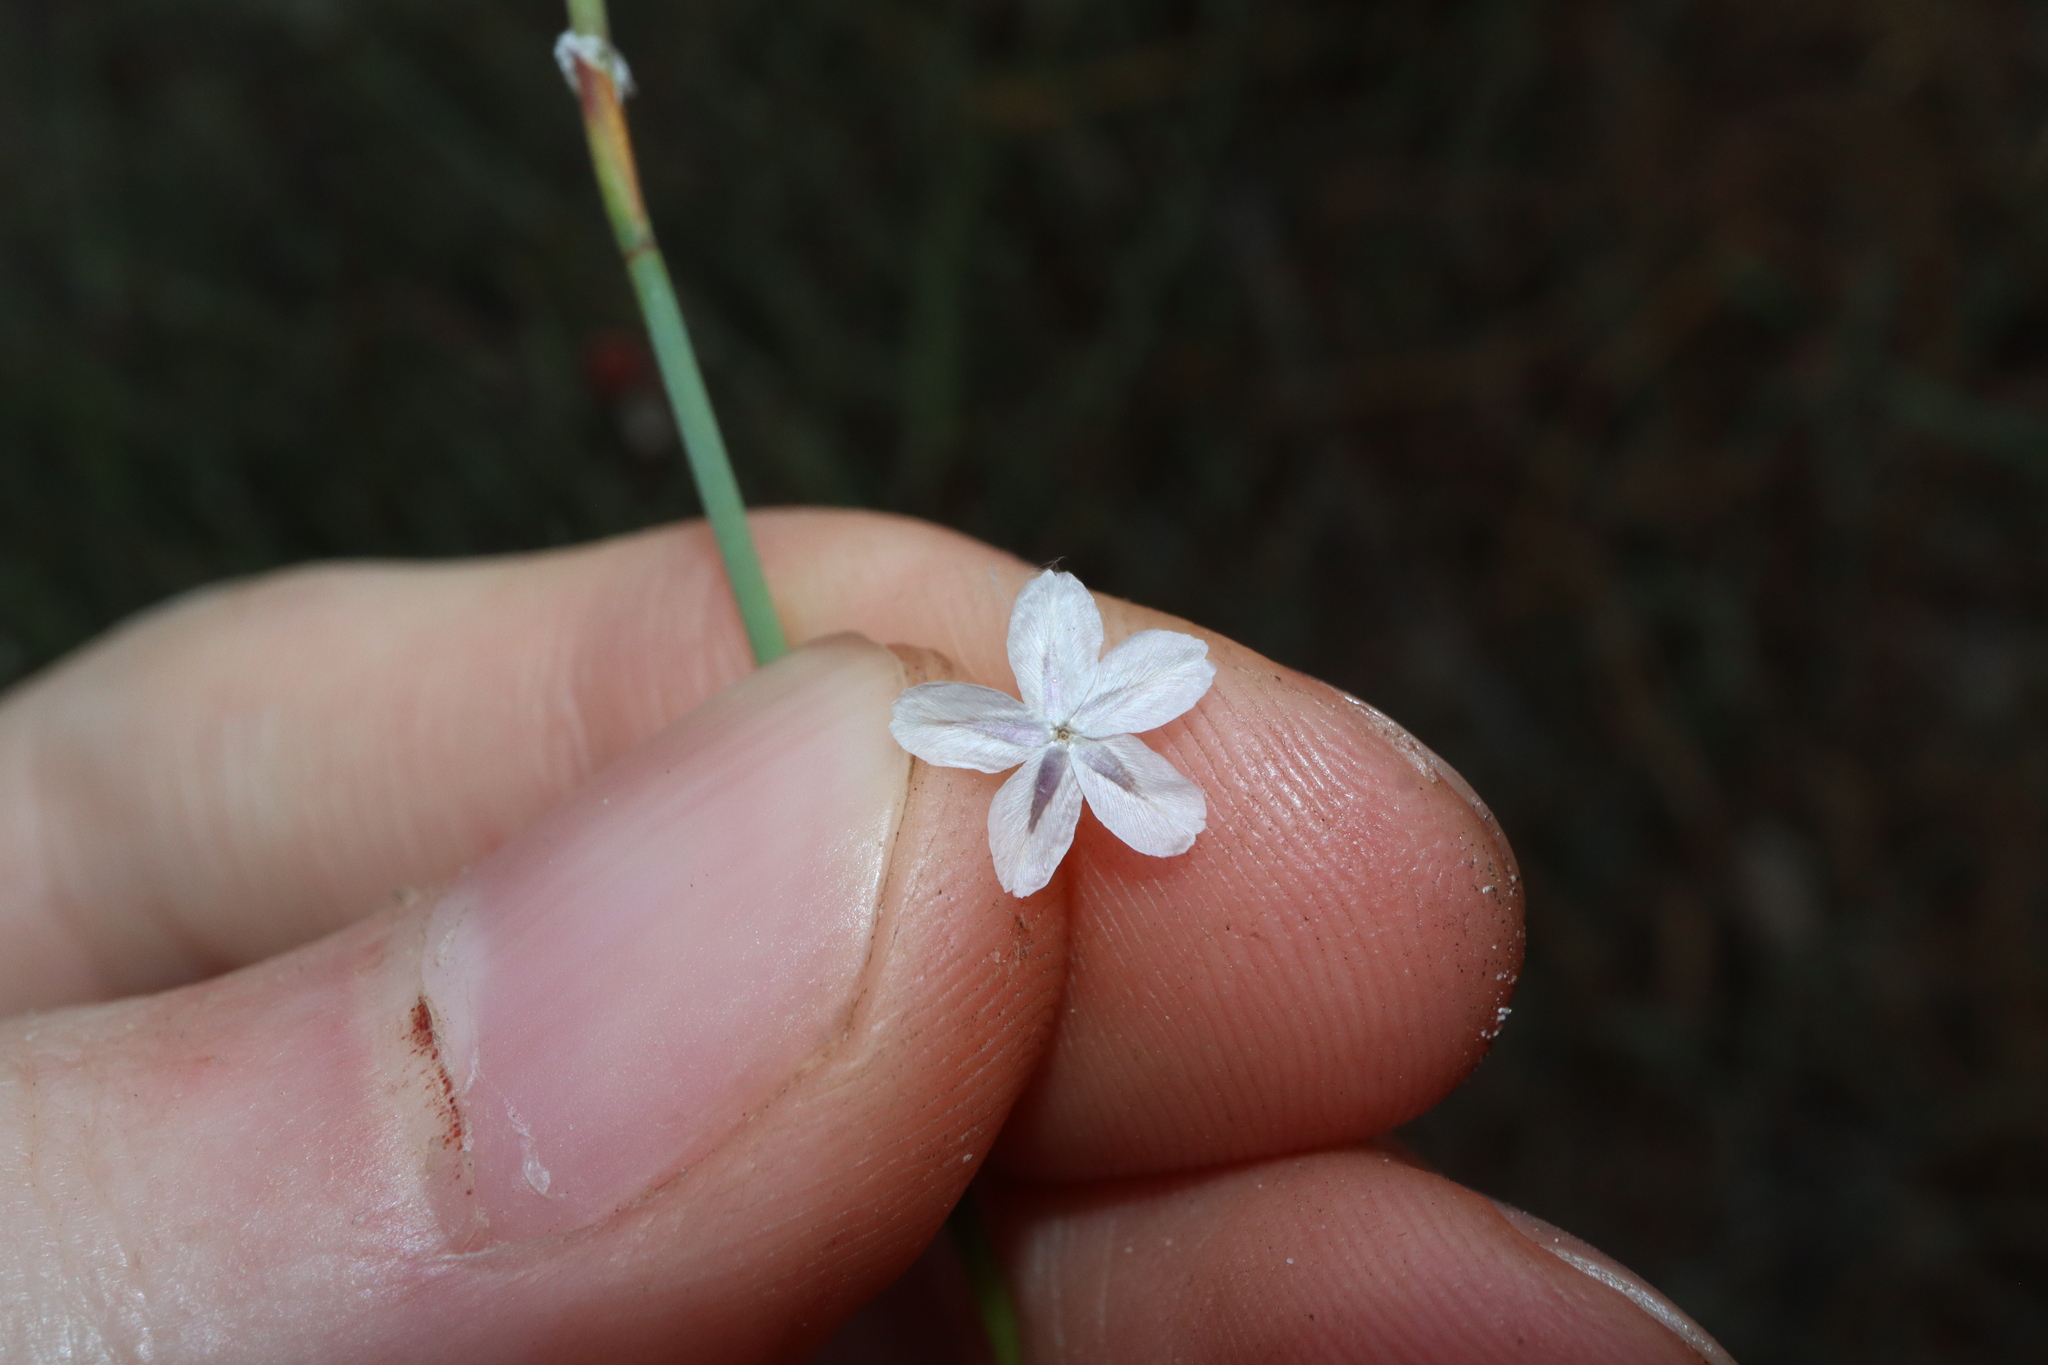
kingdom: Plantae
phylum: Tracheophyta
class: Magnoliopsida
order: Asterales
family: Asteraceae
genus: Ursinia
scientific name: Ursinia anthemoides
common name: Ursinia
